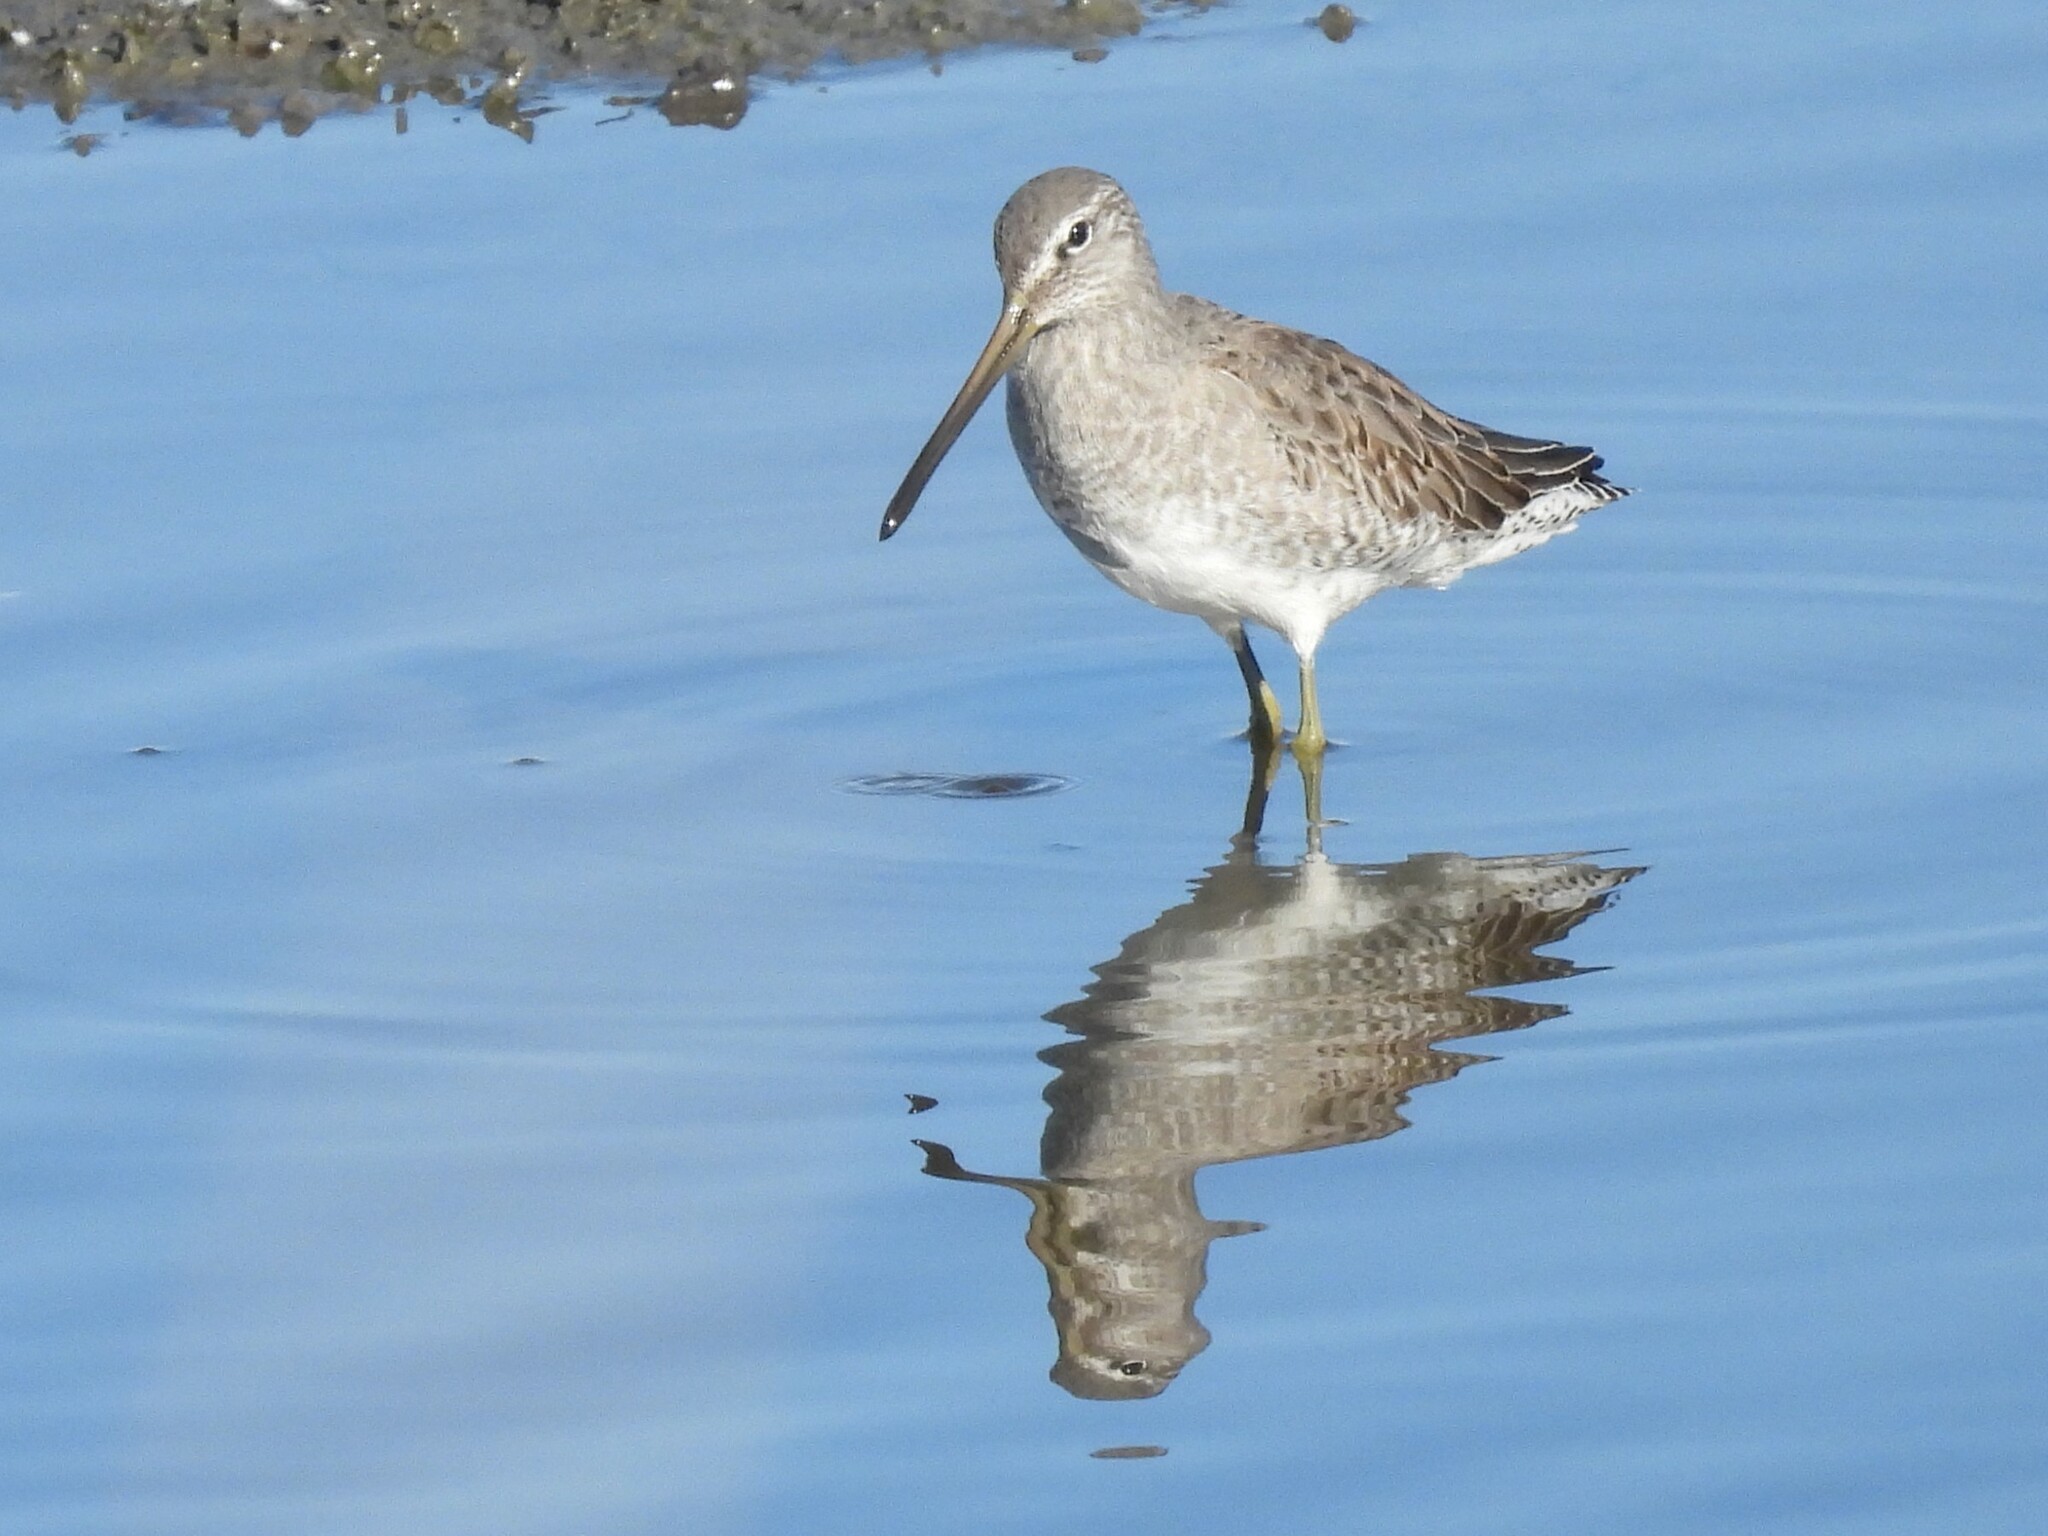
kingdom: Animalia
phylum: Chordata
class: Aves
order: Charadriiformes
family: Scolopacidae
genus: Limnodromus
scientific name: Limnodromus scolopaceus
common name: Long-billed dowitcher
